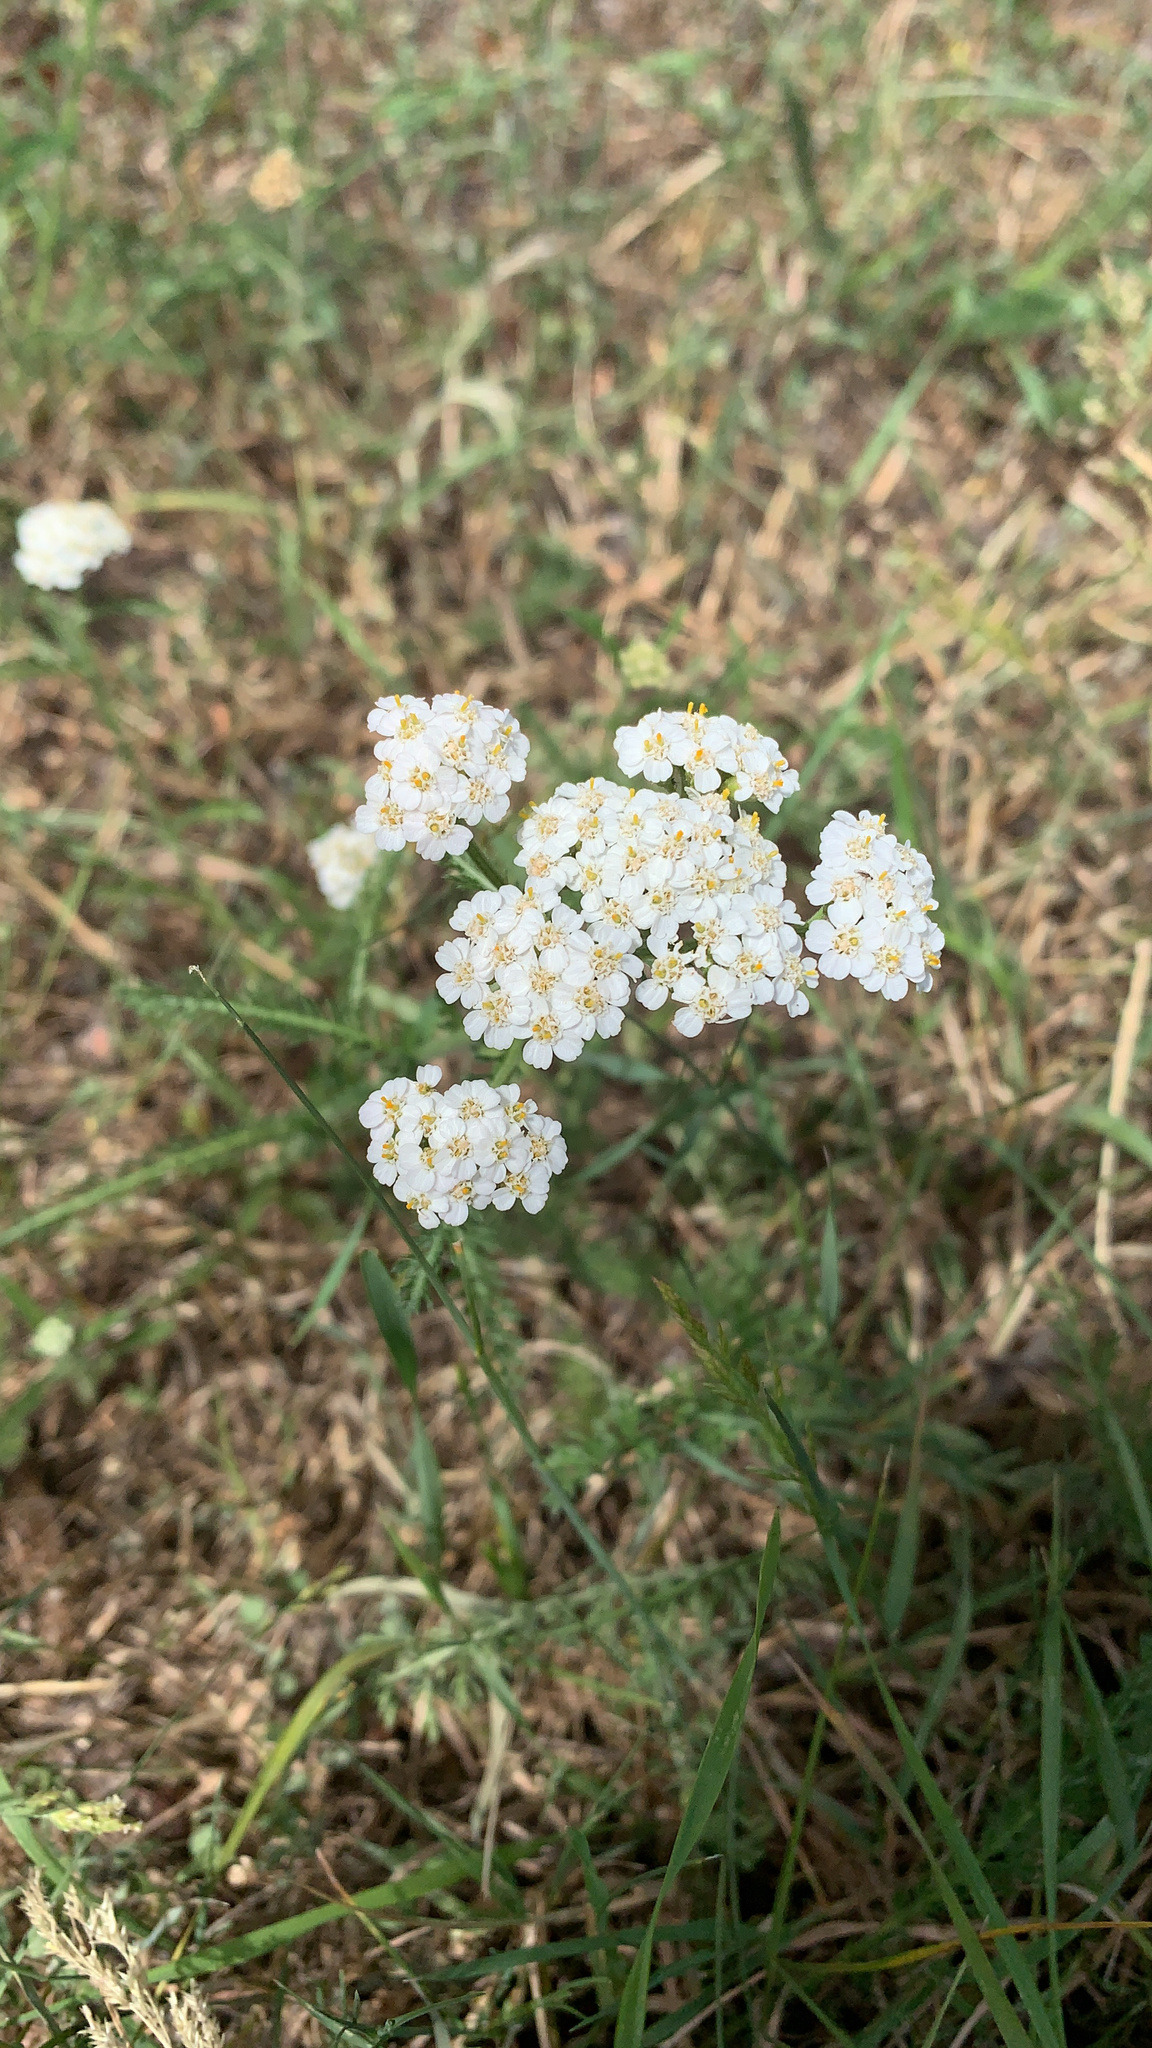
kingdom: Plantae
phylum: Tracheophyta
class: Magnoliopsida
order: Asterales
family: Asteraceae
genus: Achillea
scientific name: Achillea millefolium
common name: Yarrow
